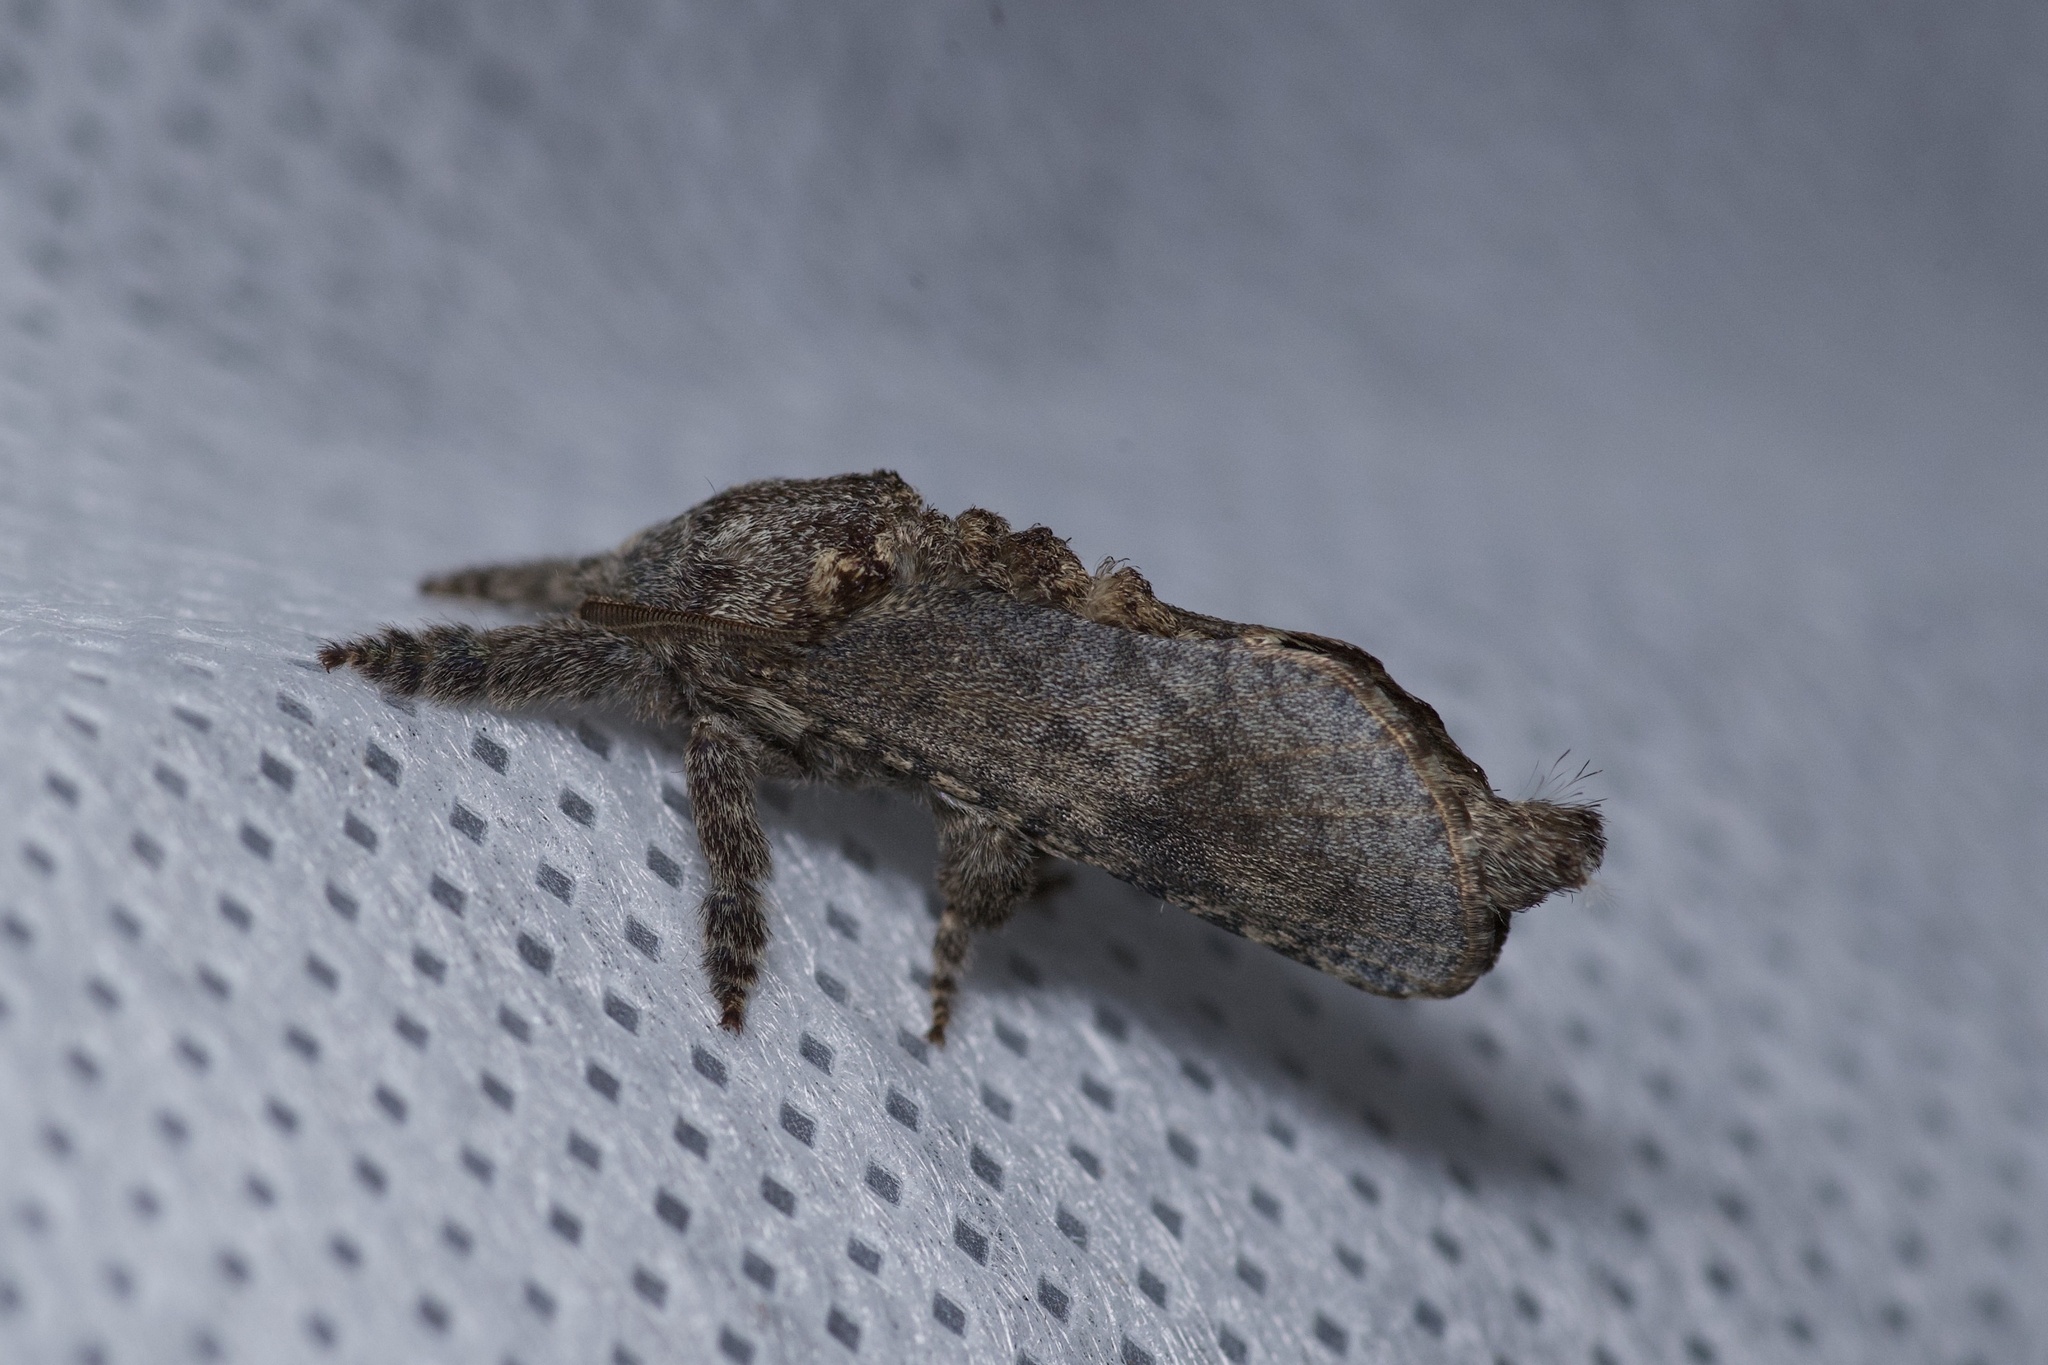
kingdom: Animalia
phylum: Arthropoda
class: Insecta
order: Lepidoptera
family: Cossidae
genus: Givira
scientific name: Givira arbeloides
